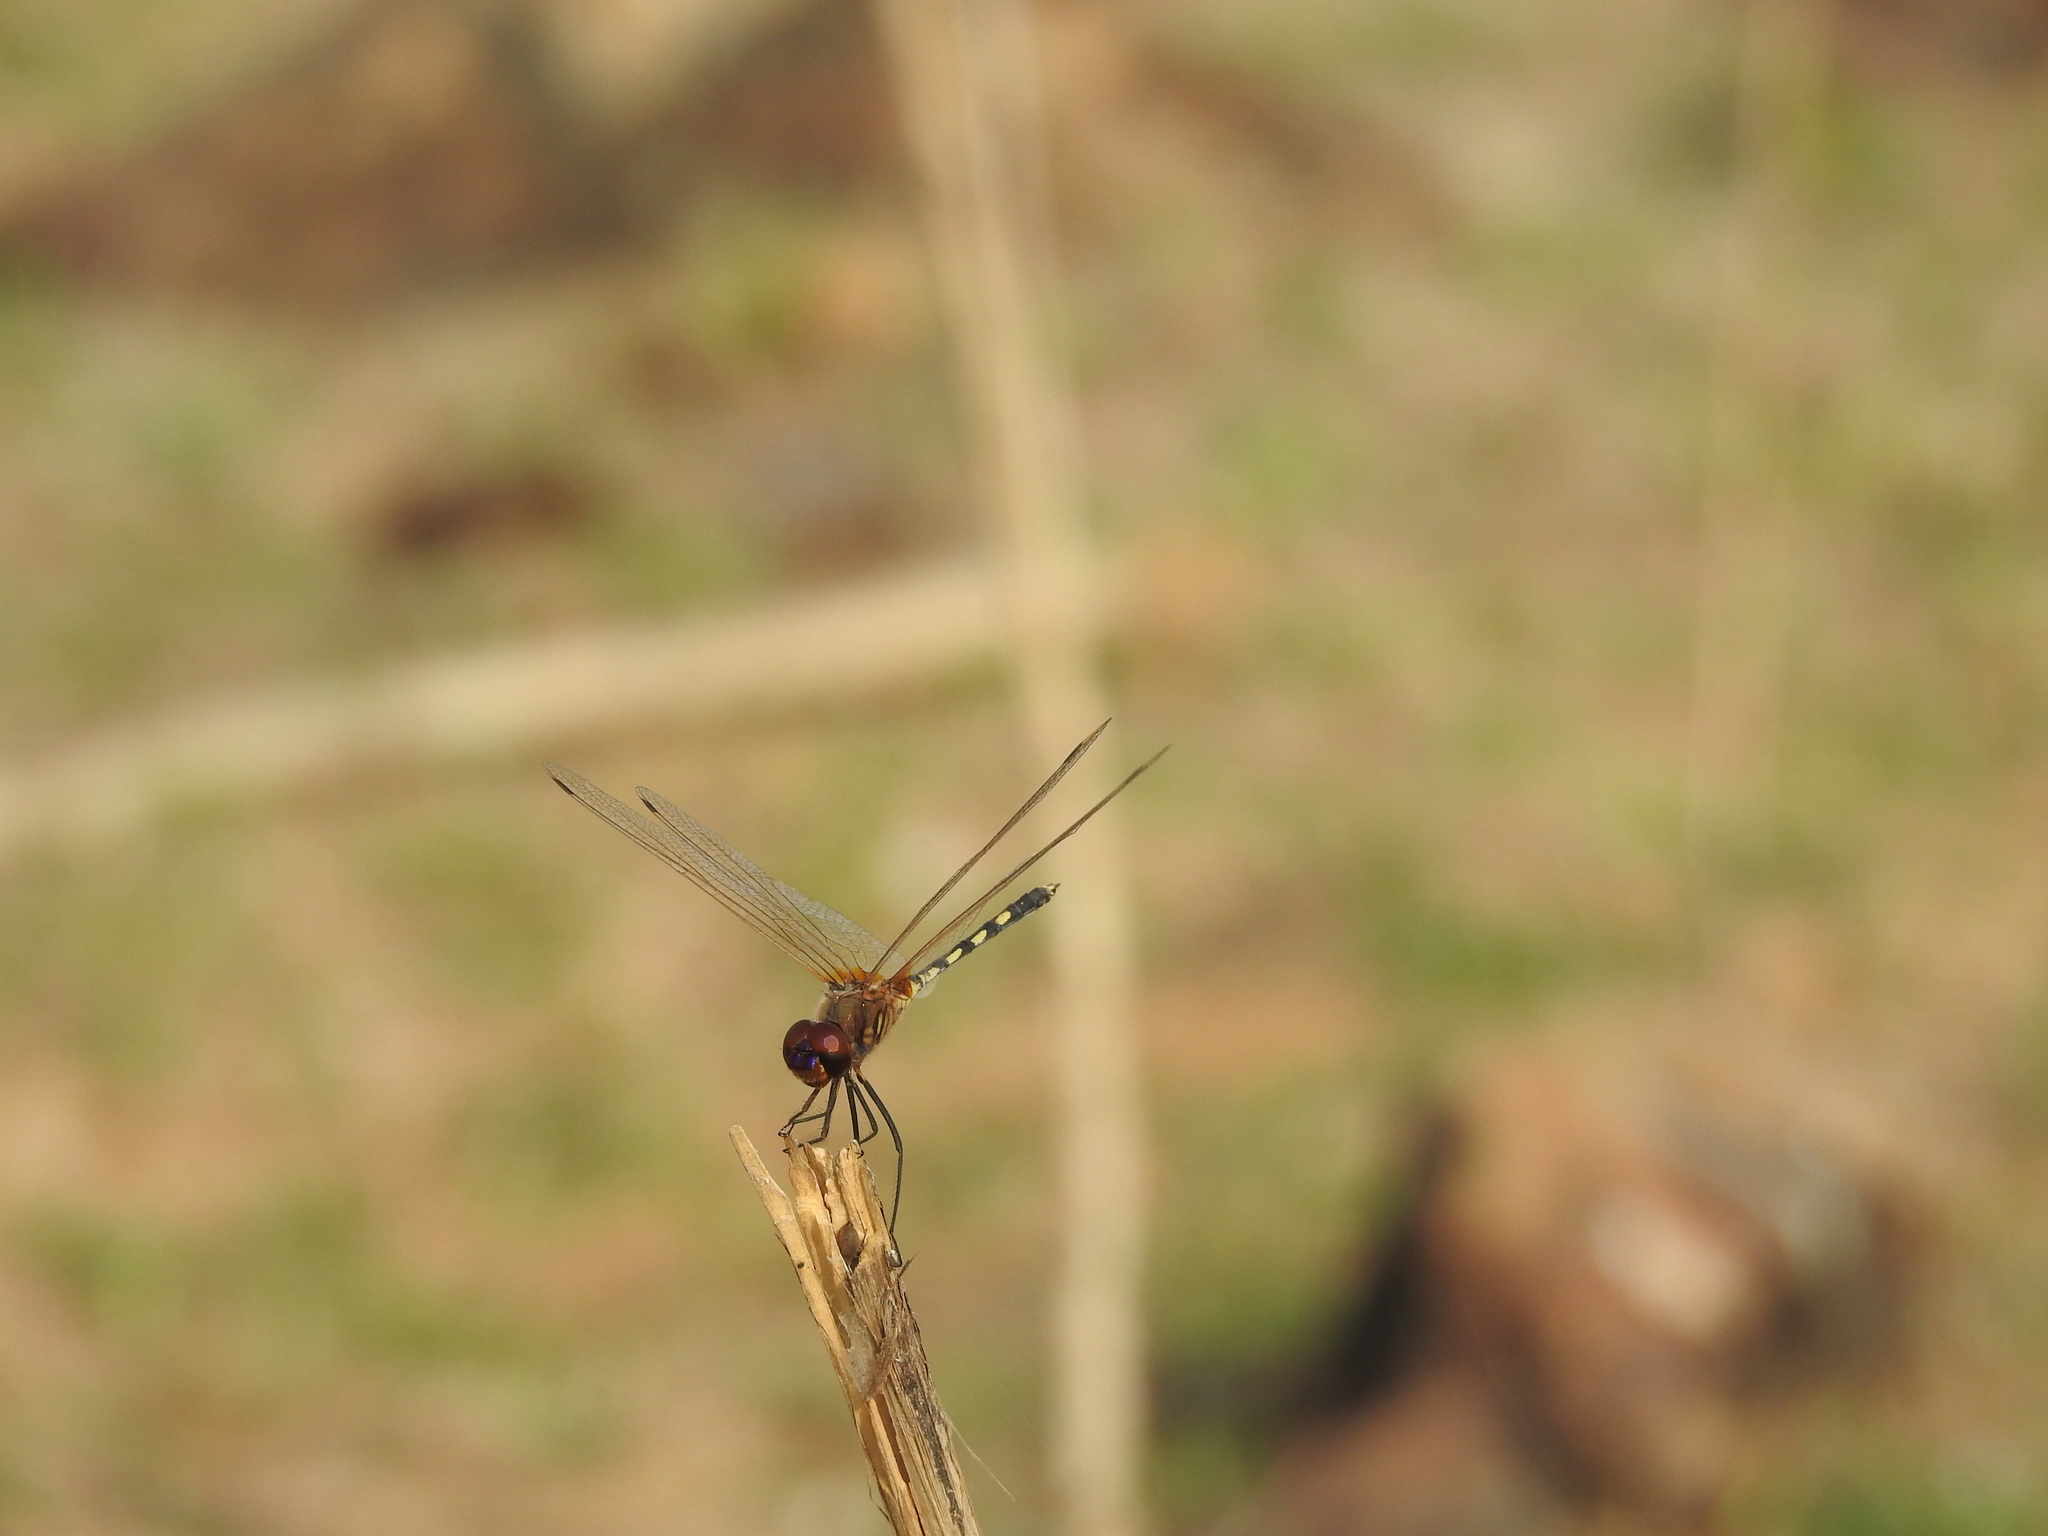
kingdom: Animalia
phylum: Arthropoda
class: Insecta
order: Odonata
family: Libellulidae
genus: Trithemis
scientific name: Trithemis pallidinervis
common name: Dancing dropwing
